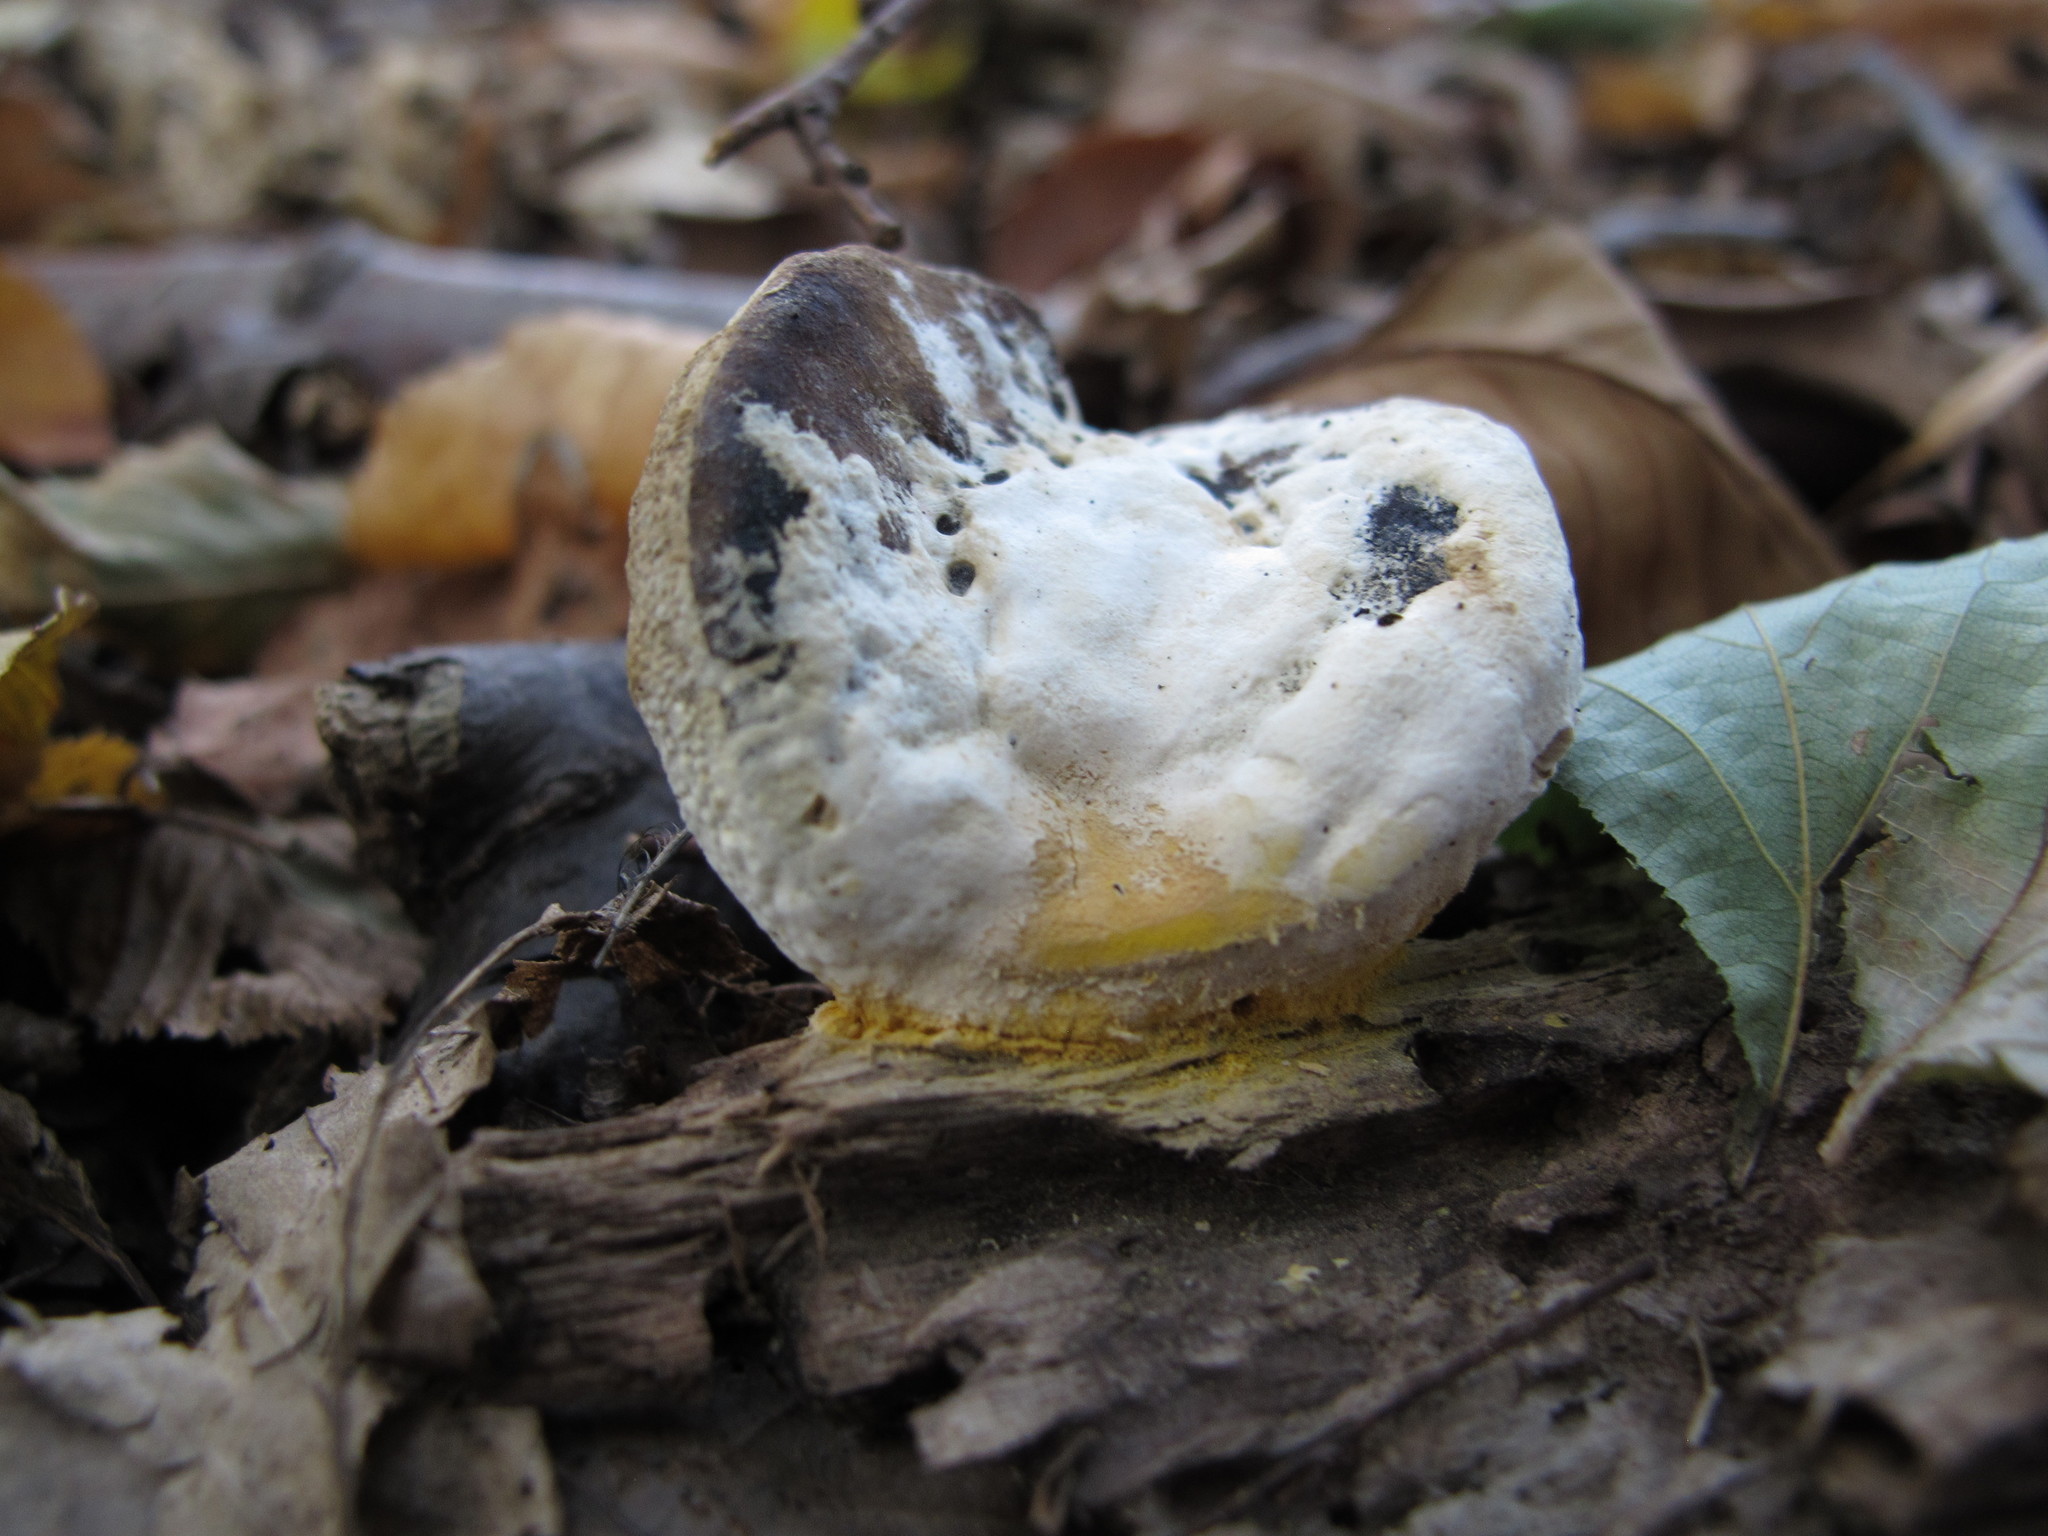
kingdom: Fungi
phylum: Ascomycota
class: Sordariomycetes
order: Hypocreales
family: Hypocreaceae
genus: Hypomyces
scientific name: Hypomyces chrysospermus
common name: Bolete mould
